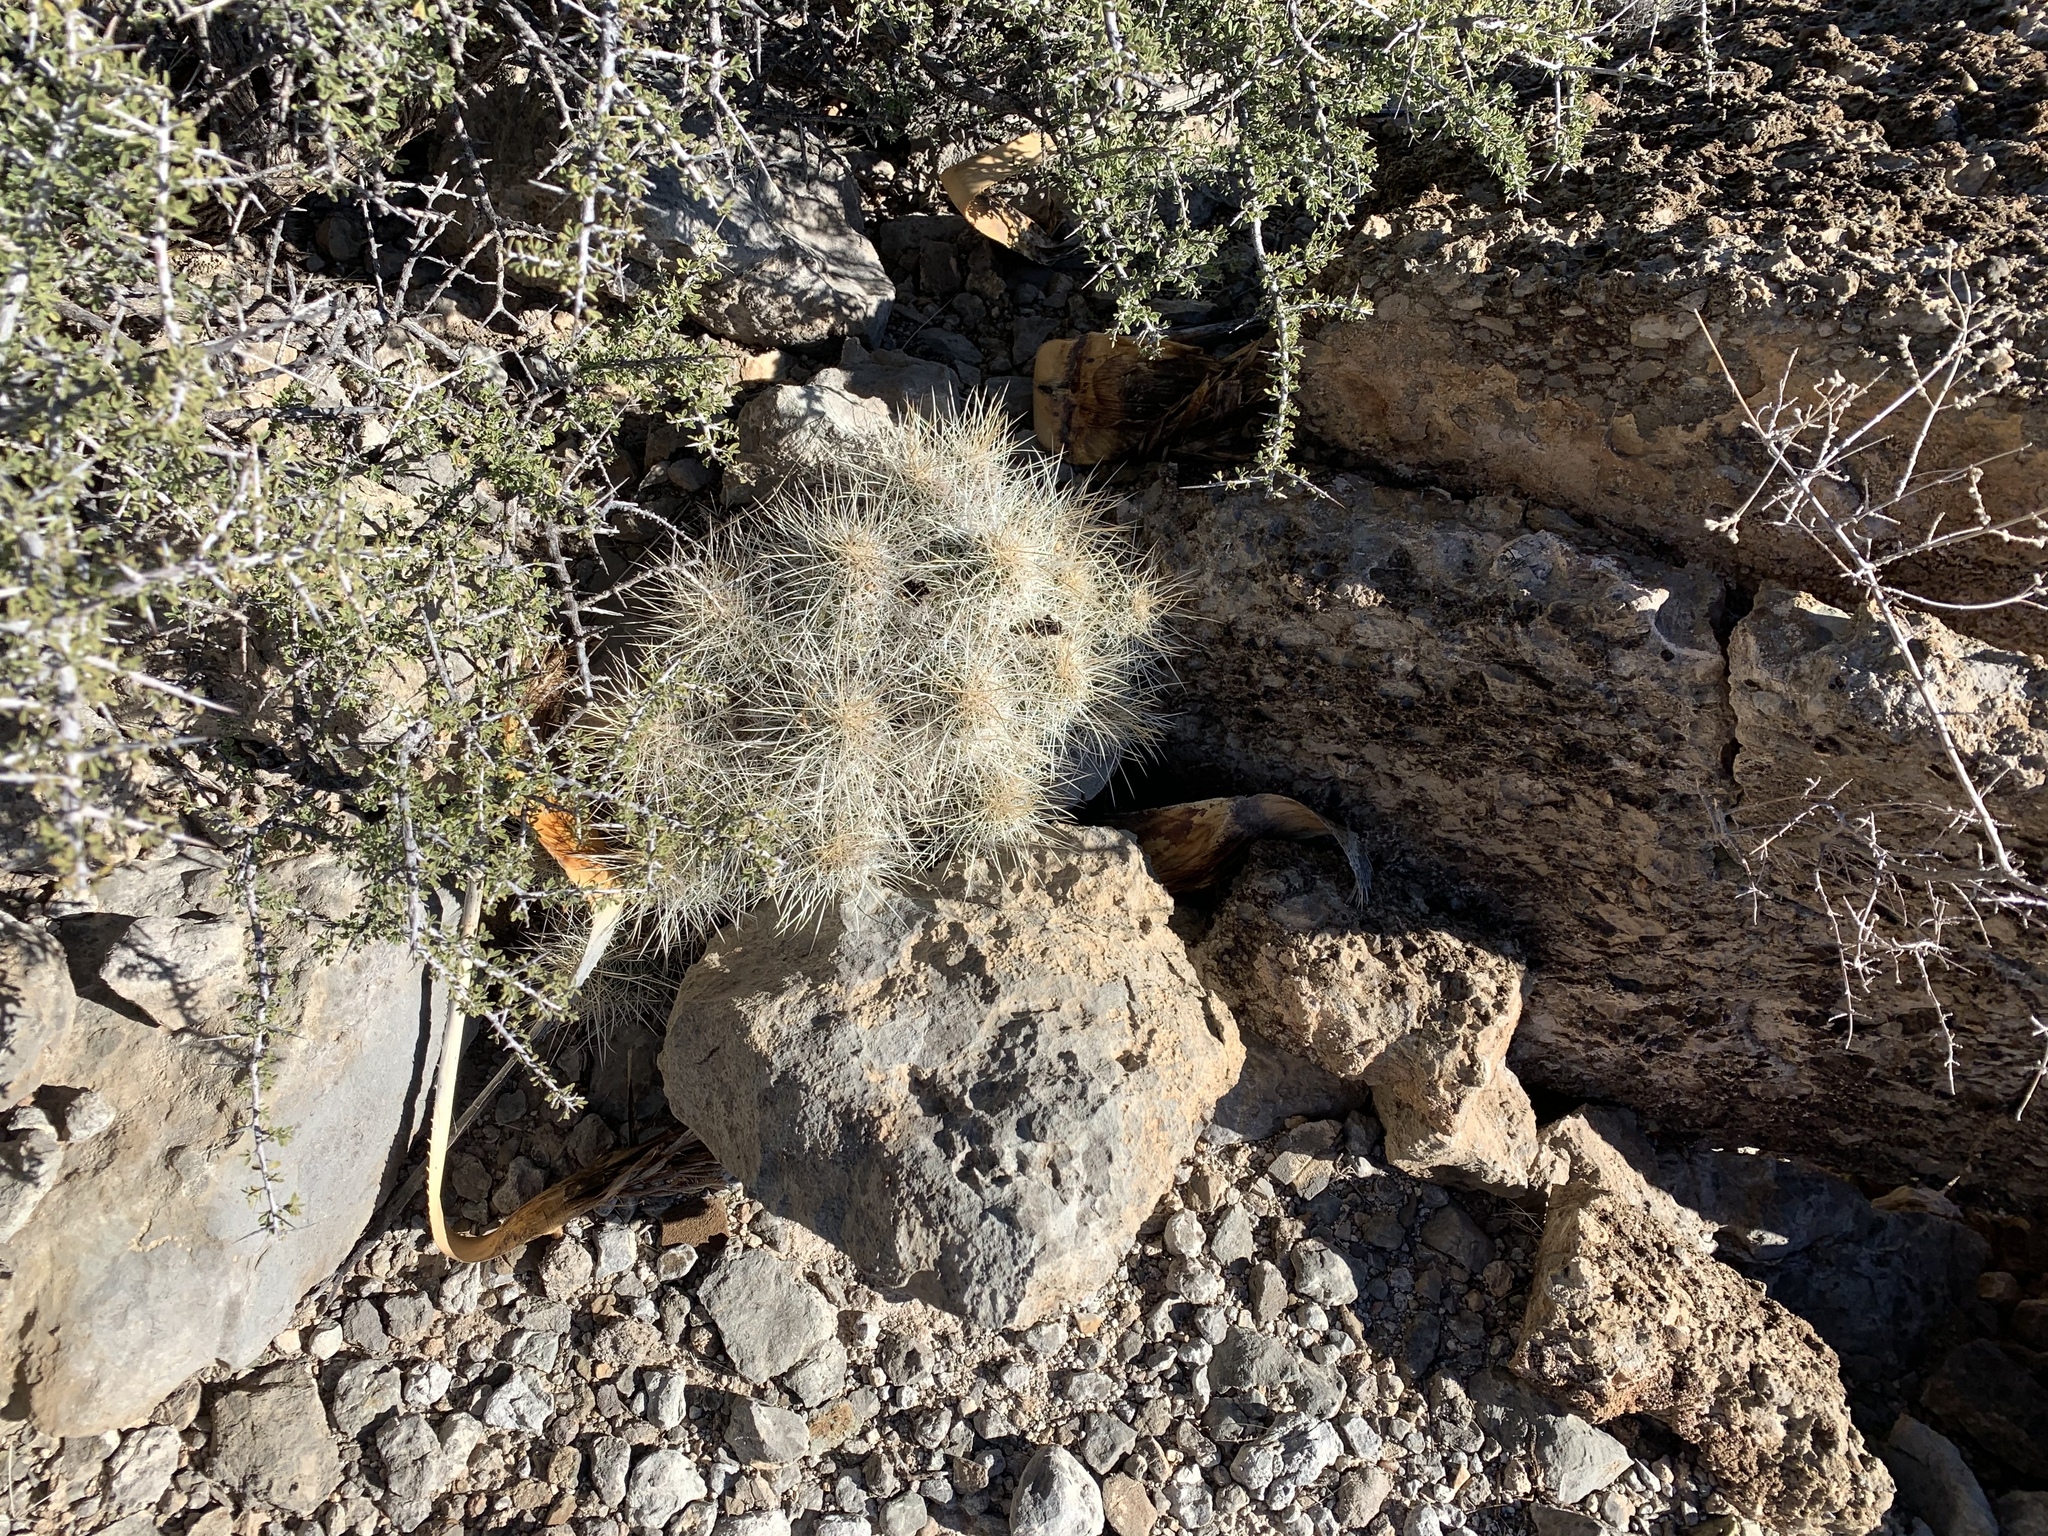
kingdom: Plantae
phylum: Tracheophyta
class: Magnoliopsida
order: Caryophyllales
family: Cactaceae
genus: Echinocereus
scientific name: Echinocereus stramineus
